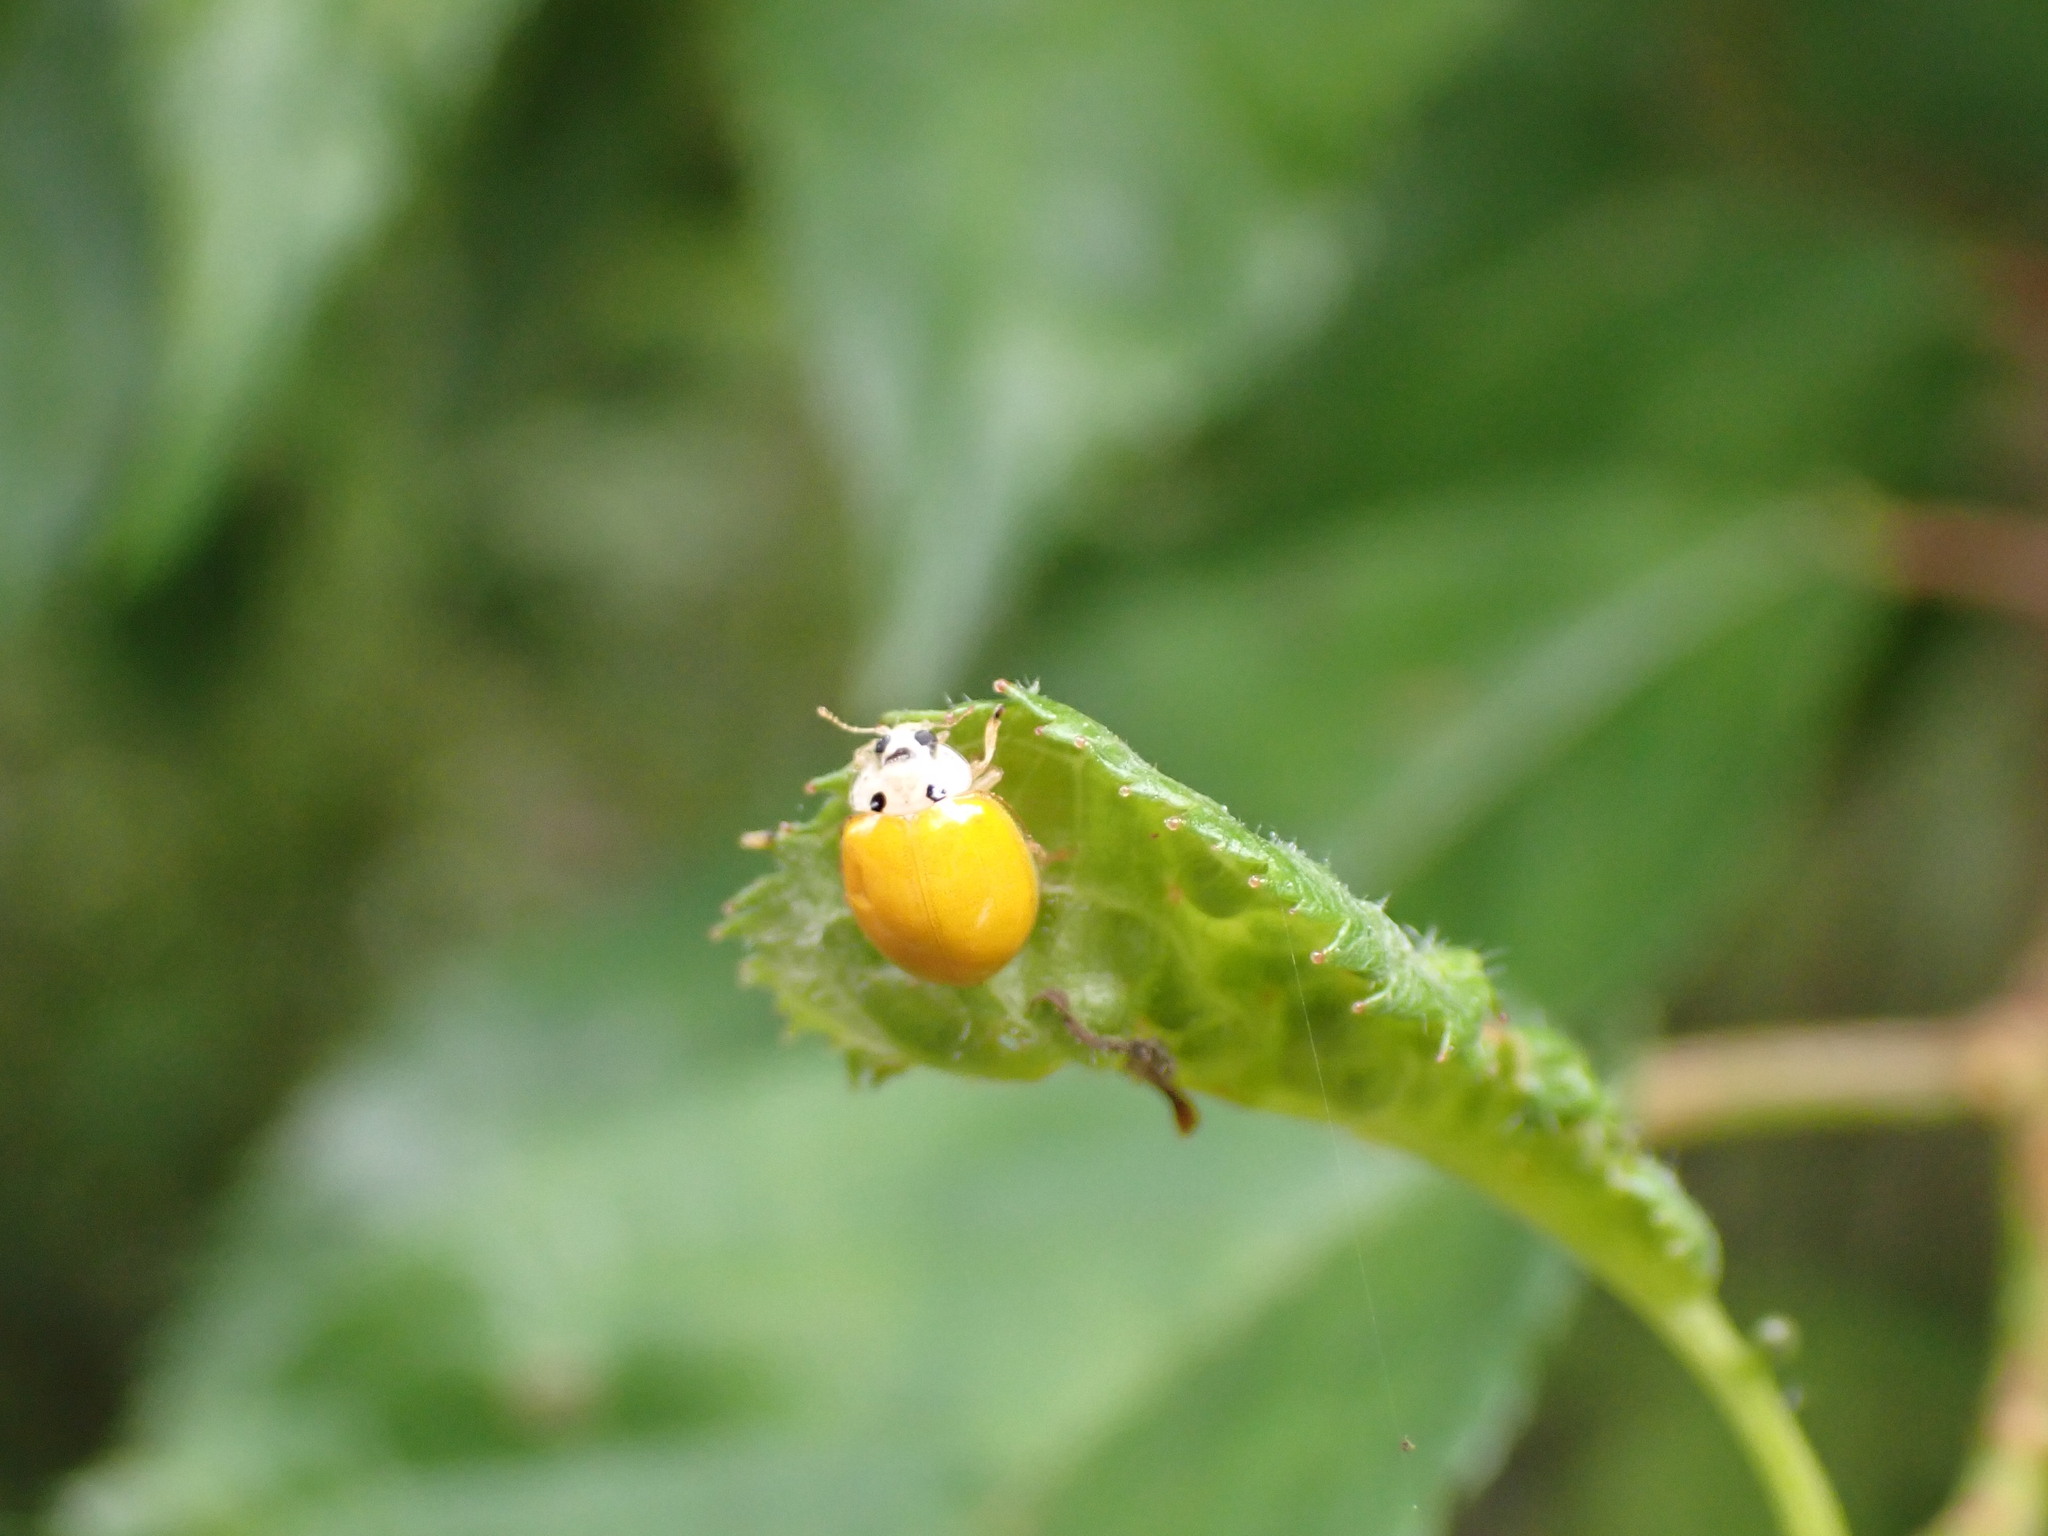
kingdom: Animalia
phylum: Arthropoda
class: Insecta
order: Coleoptera
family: Coccinellidae
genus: Illeis
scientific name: Illeis koebelei
